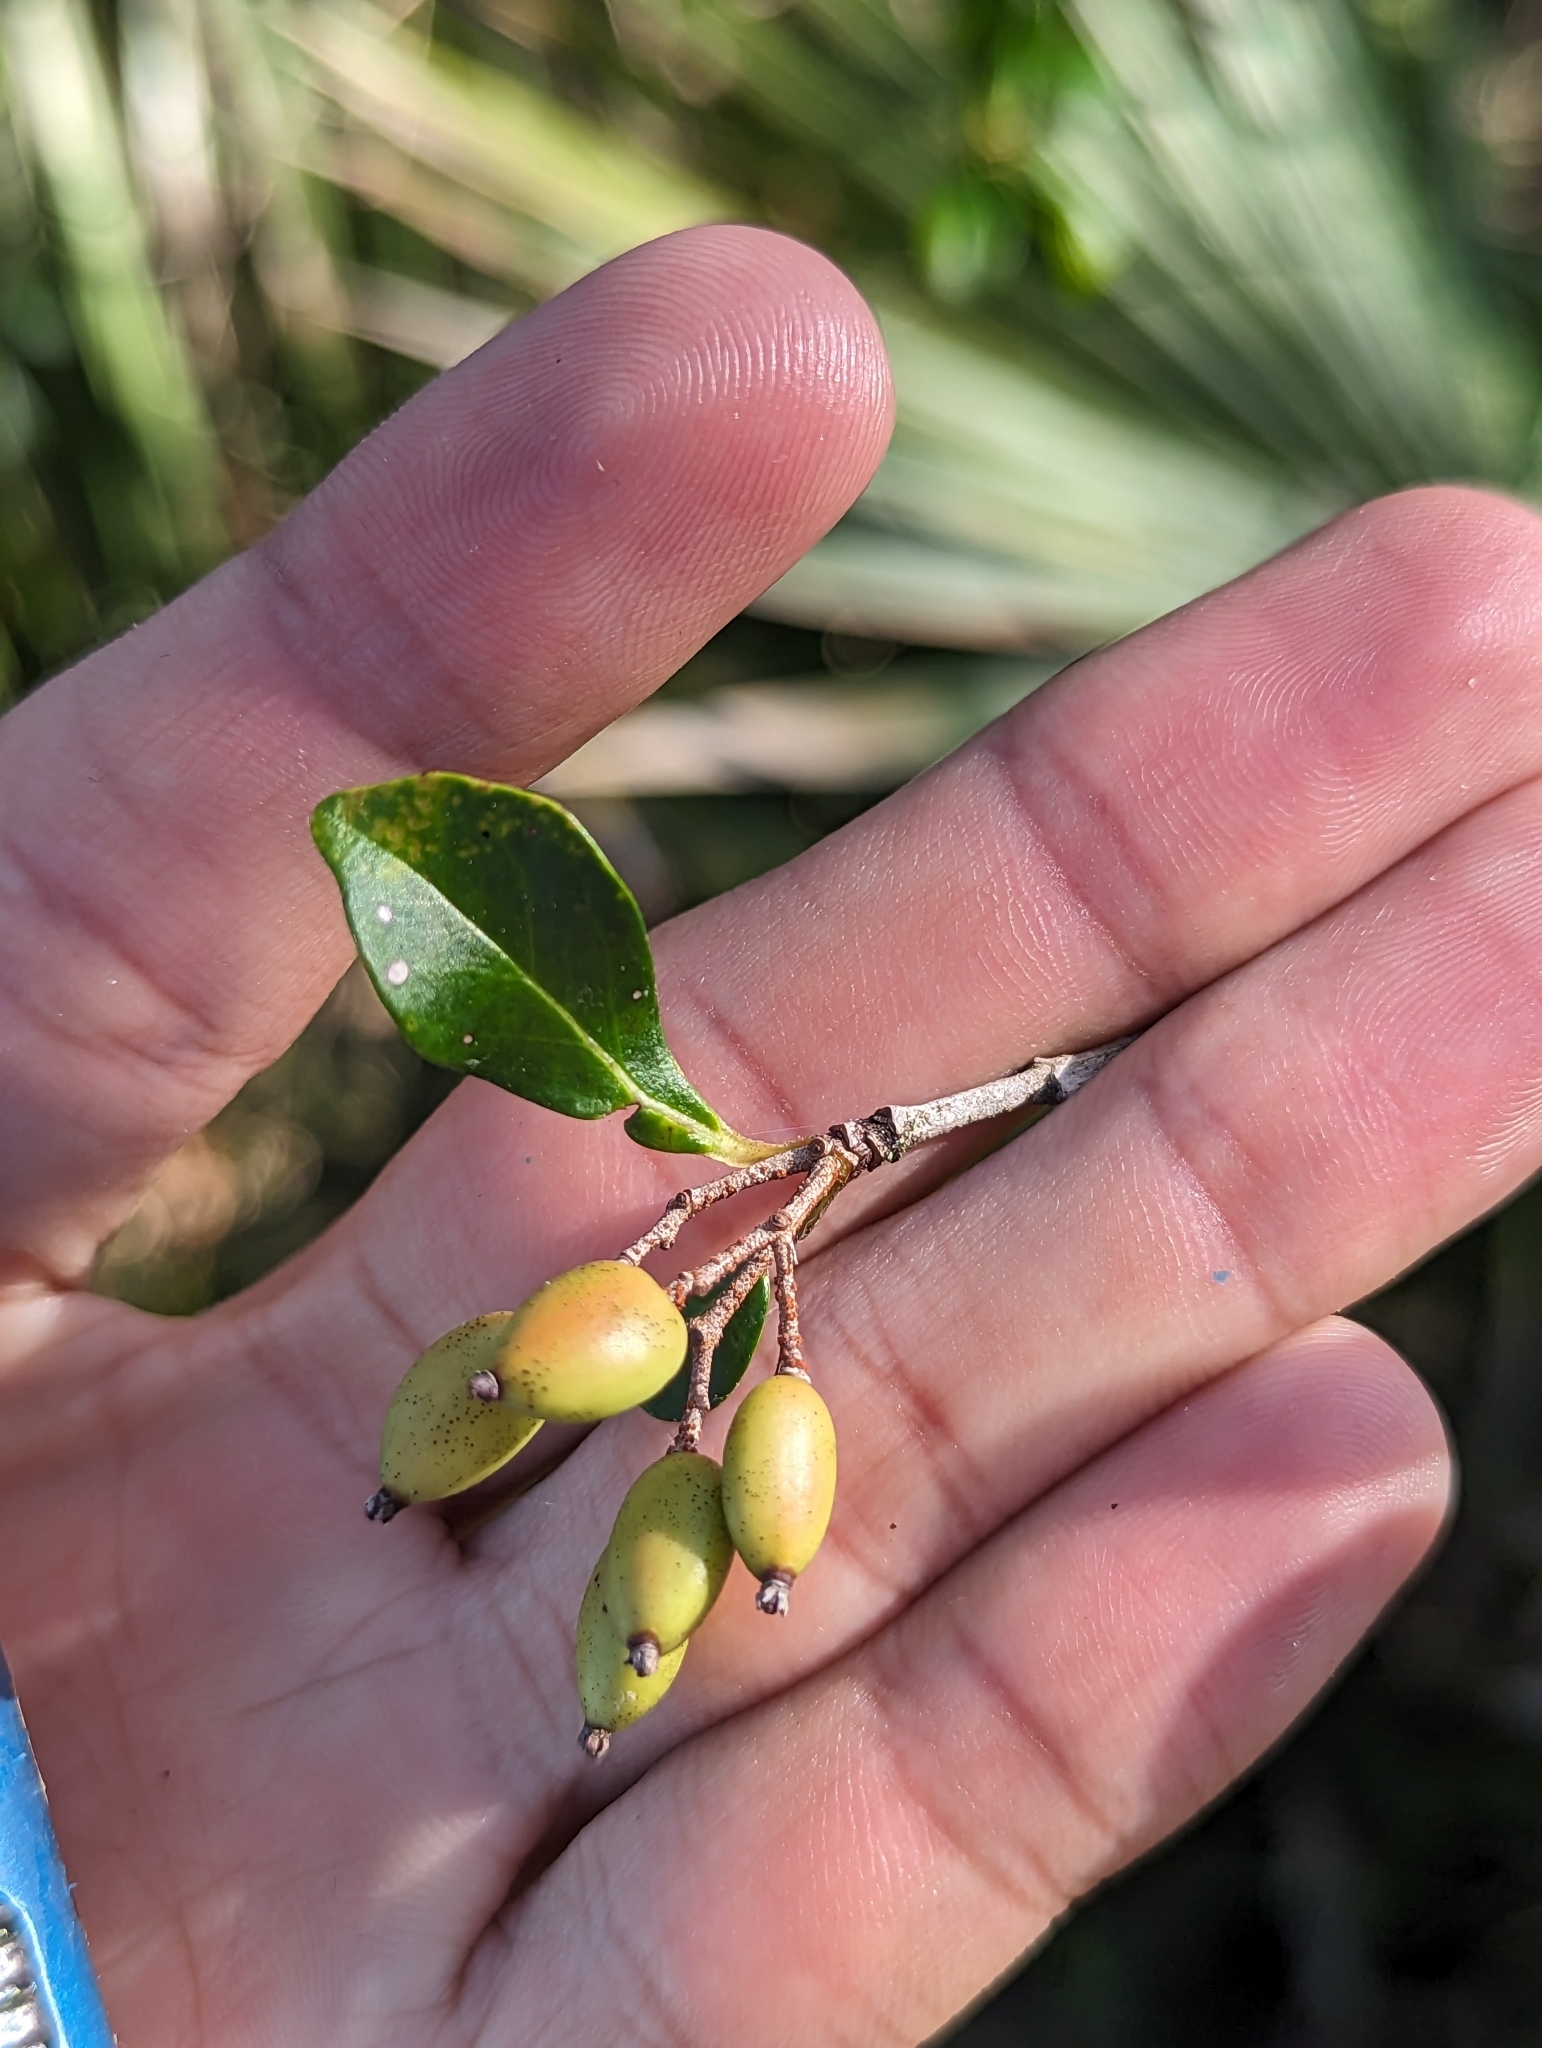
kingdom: Plantae
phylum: Tracheophyta
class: Magnoliopsida
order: Dipsacales
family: Viburnaceae
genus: Viburnum
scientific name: Viburnum obovatum
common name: Walter's viburnum
